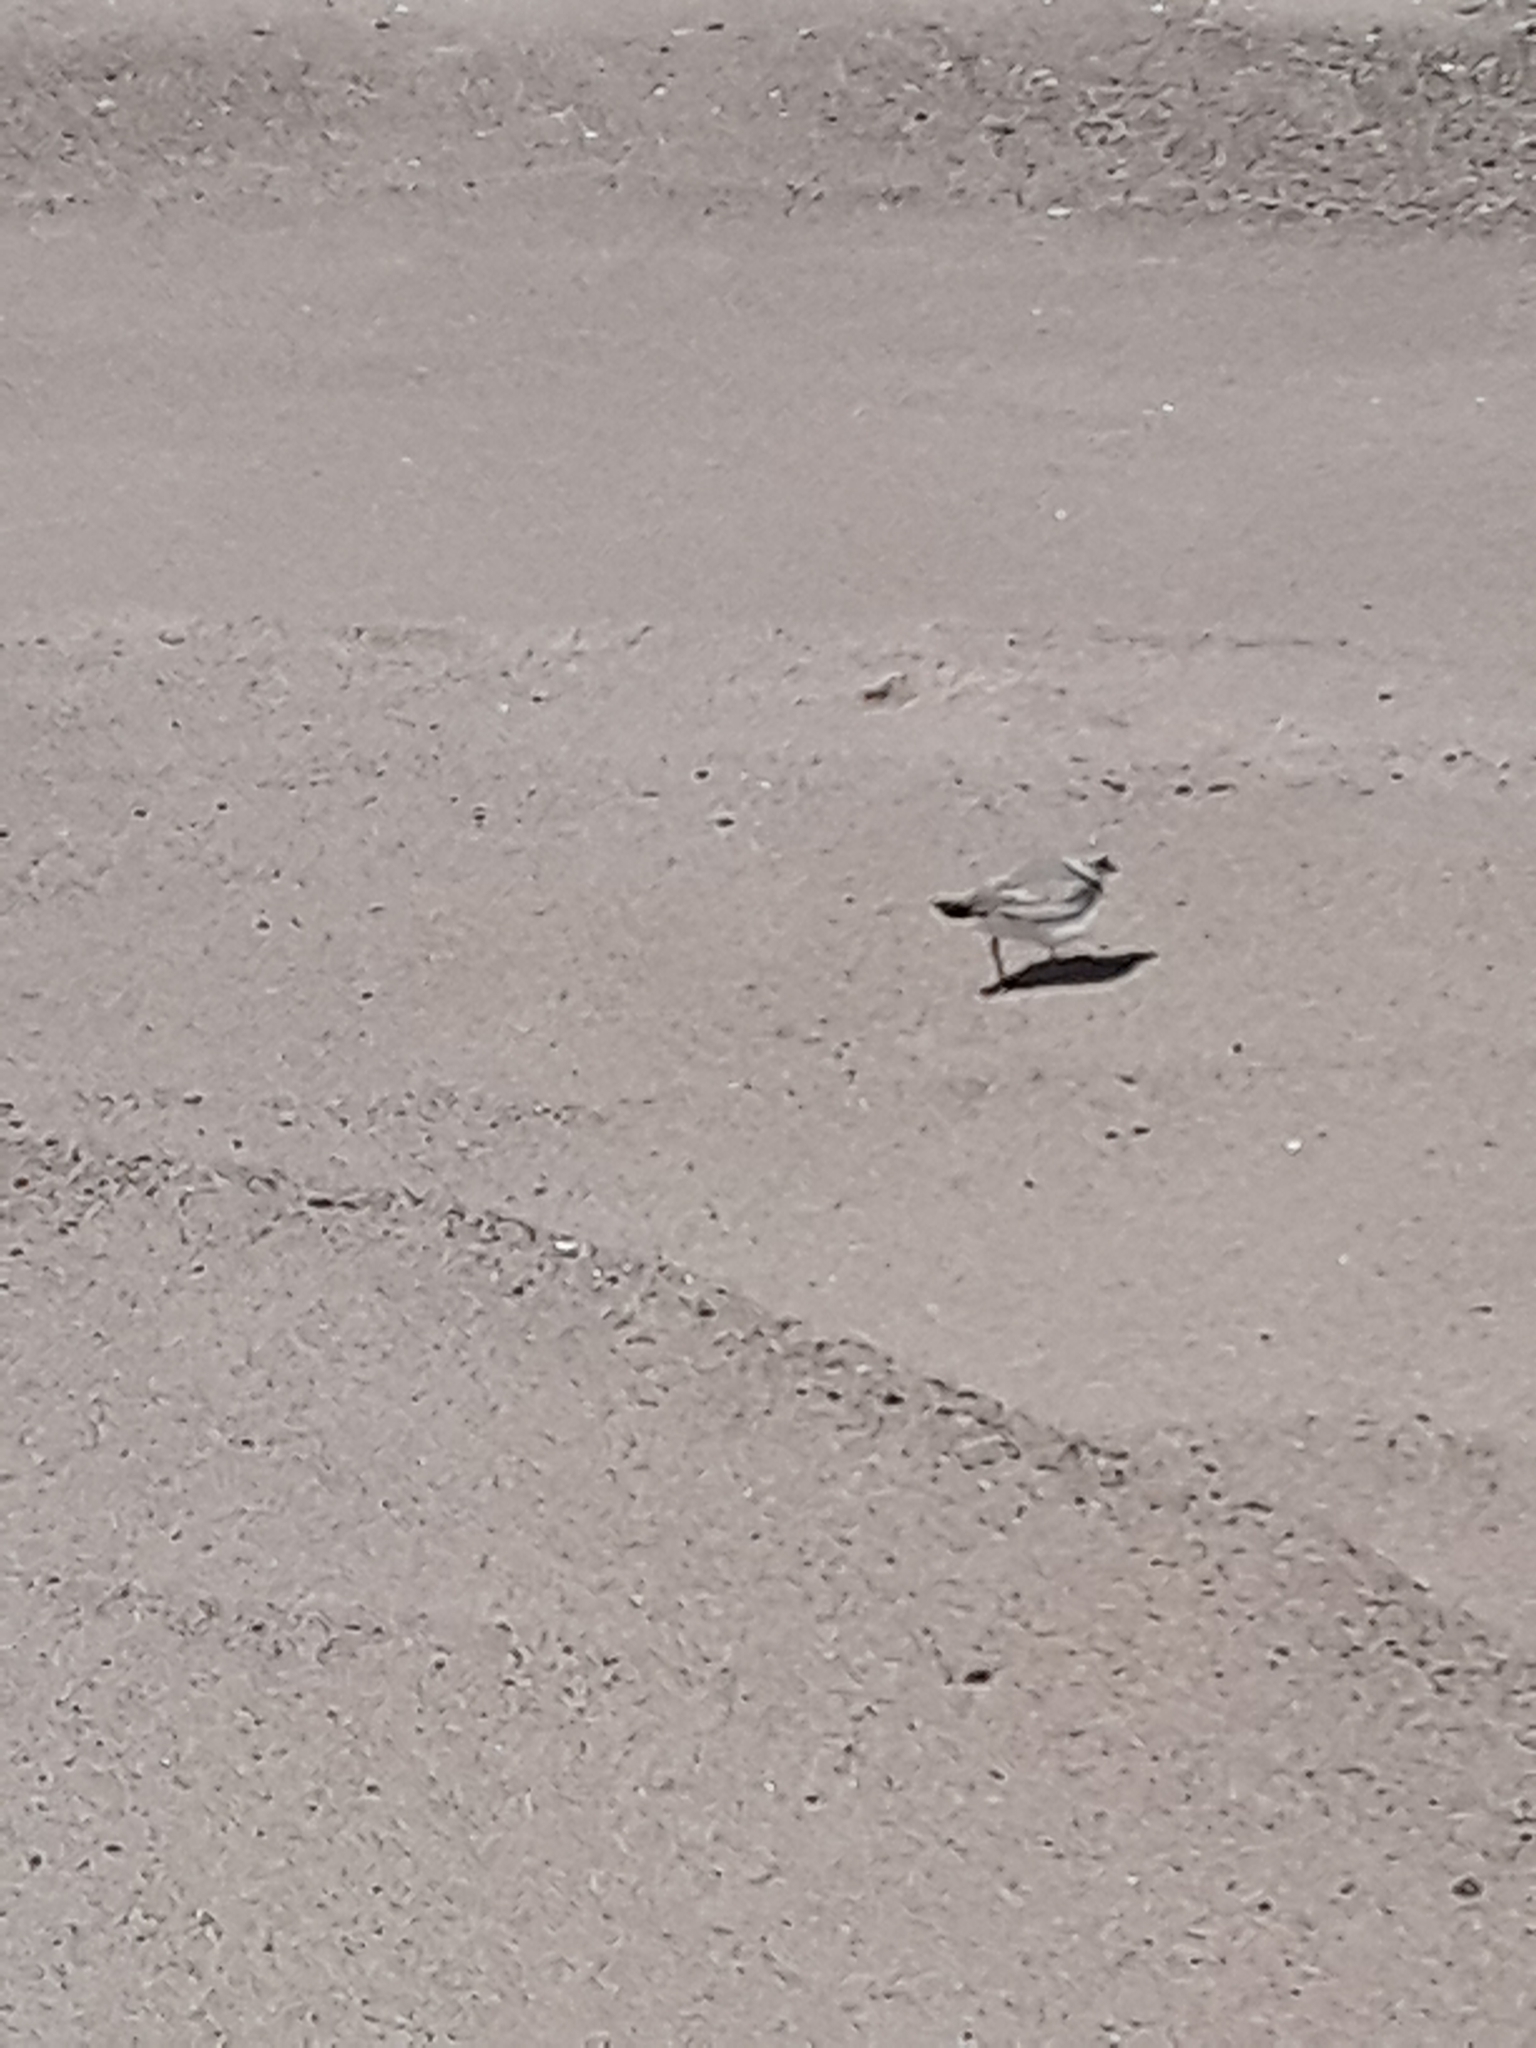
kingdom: Animalia
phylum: Chordata
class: Aves
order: Charadriiformes
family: Charadriidae
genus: Charadrius
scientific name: Charadrius melodus
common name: Piping plover
